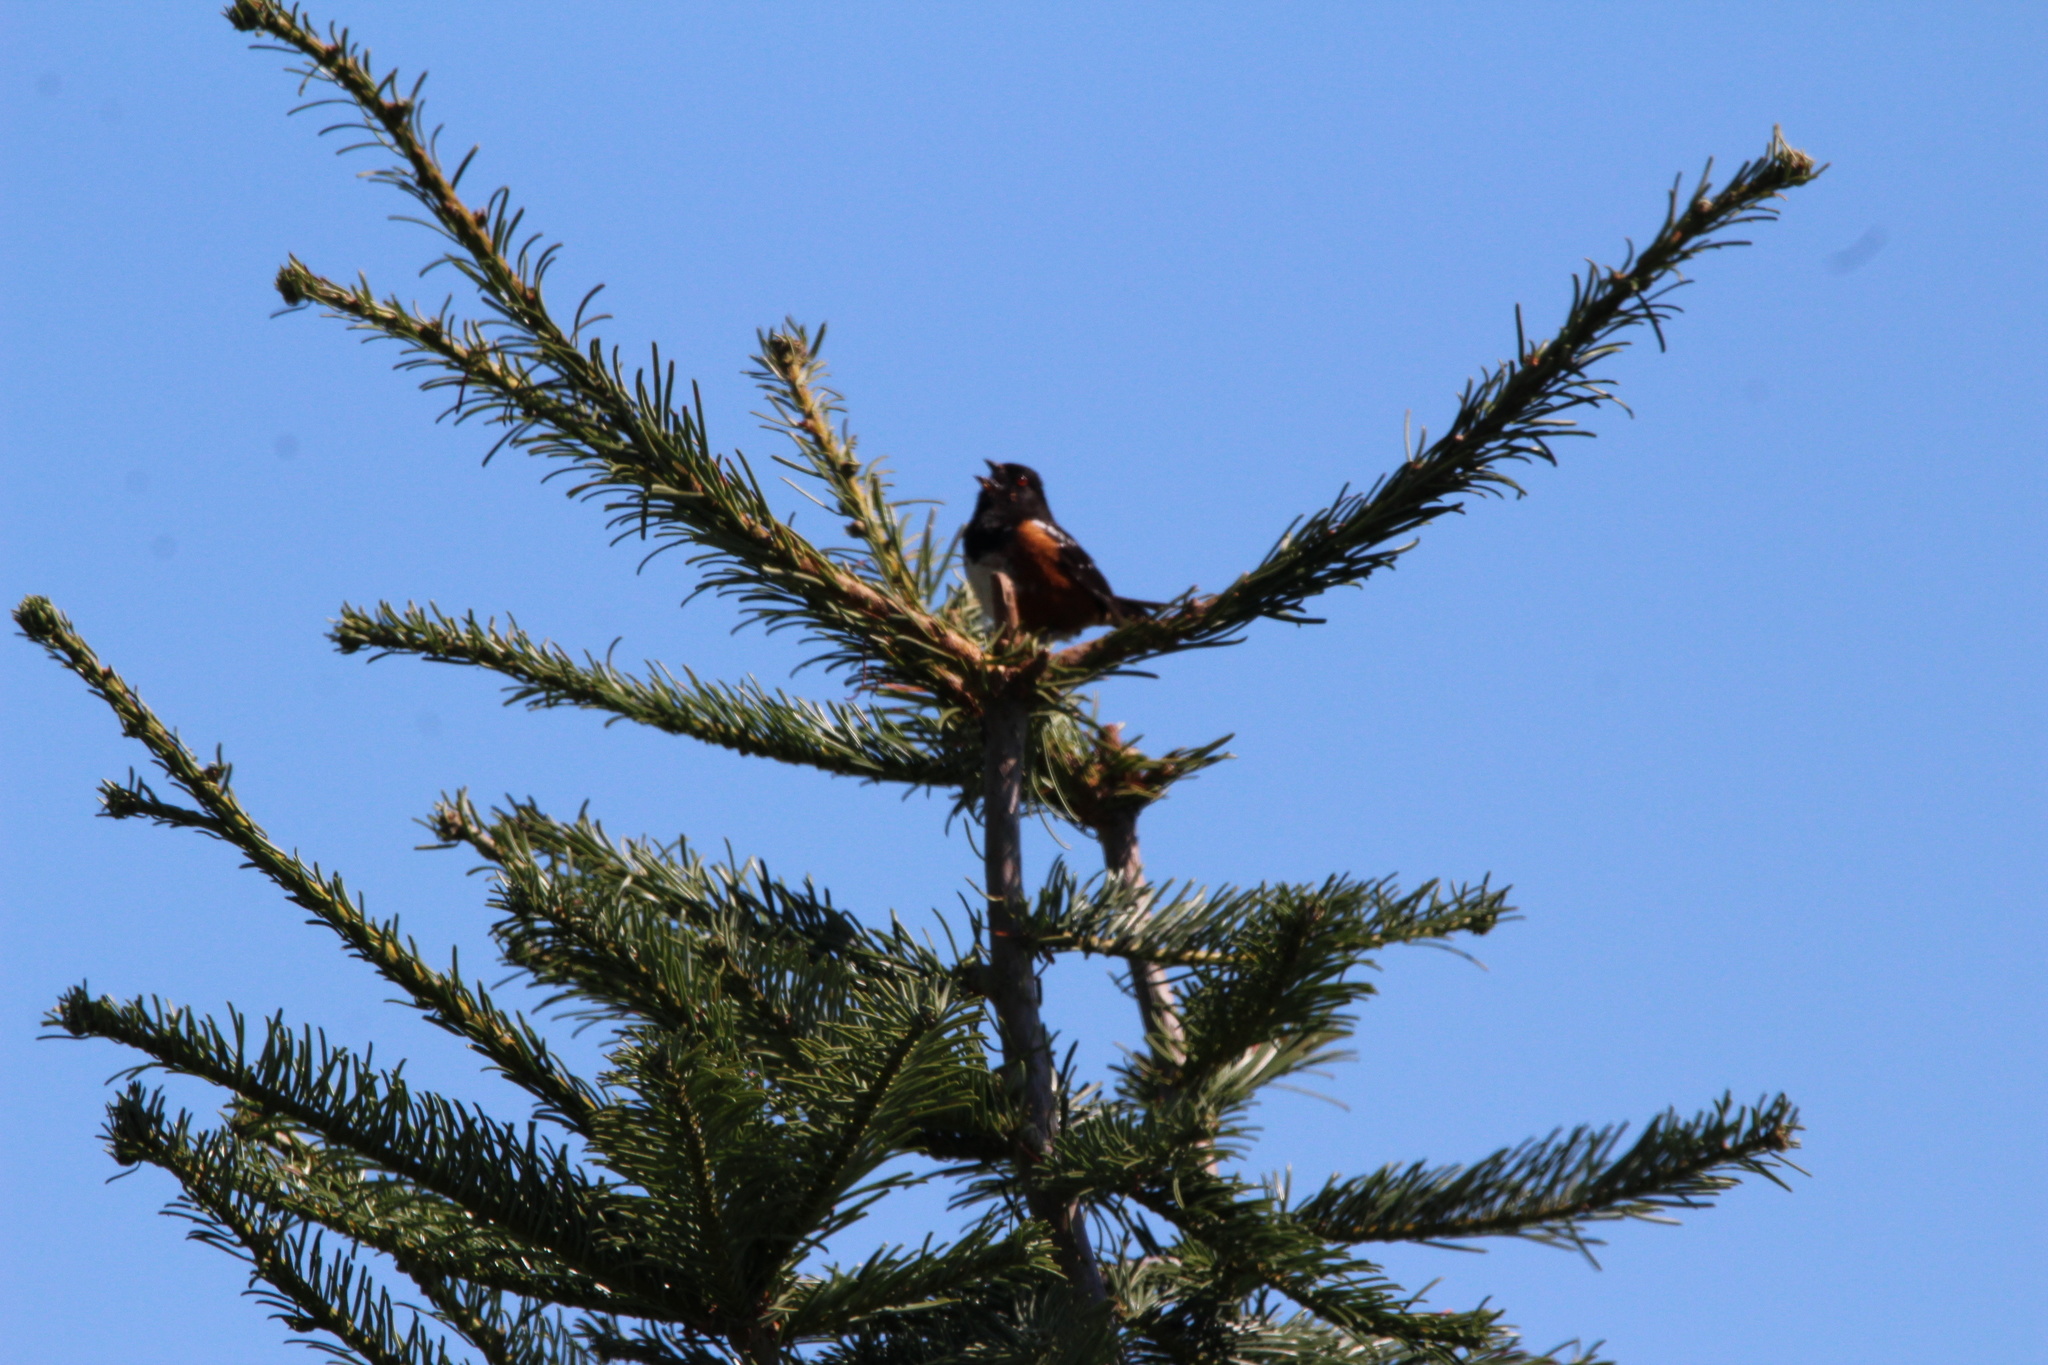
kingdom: Animalia
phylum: Chordata
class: Aves
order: Passeriformes
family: Passerellidae
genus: Pipilo
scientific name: Pipilo maculatus
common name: Spotted towhee
